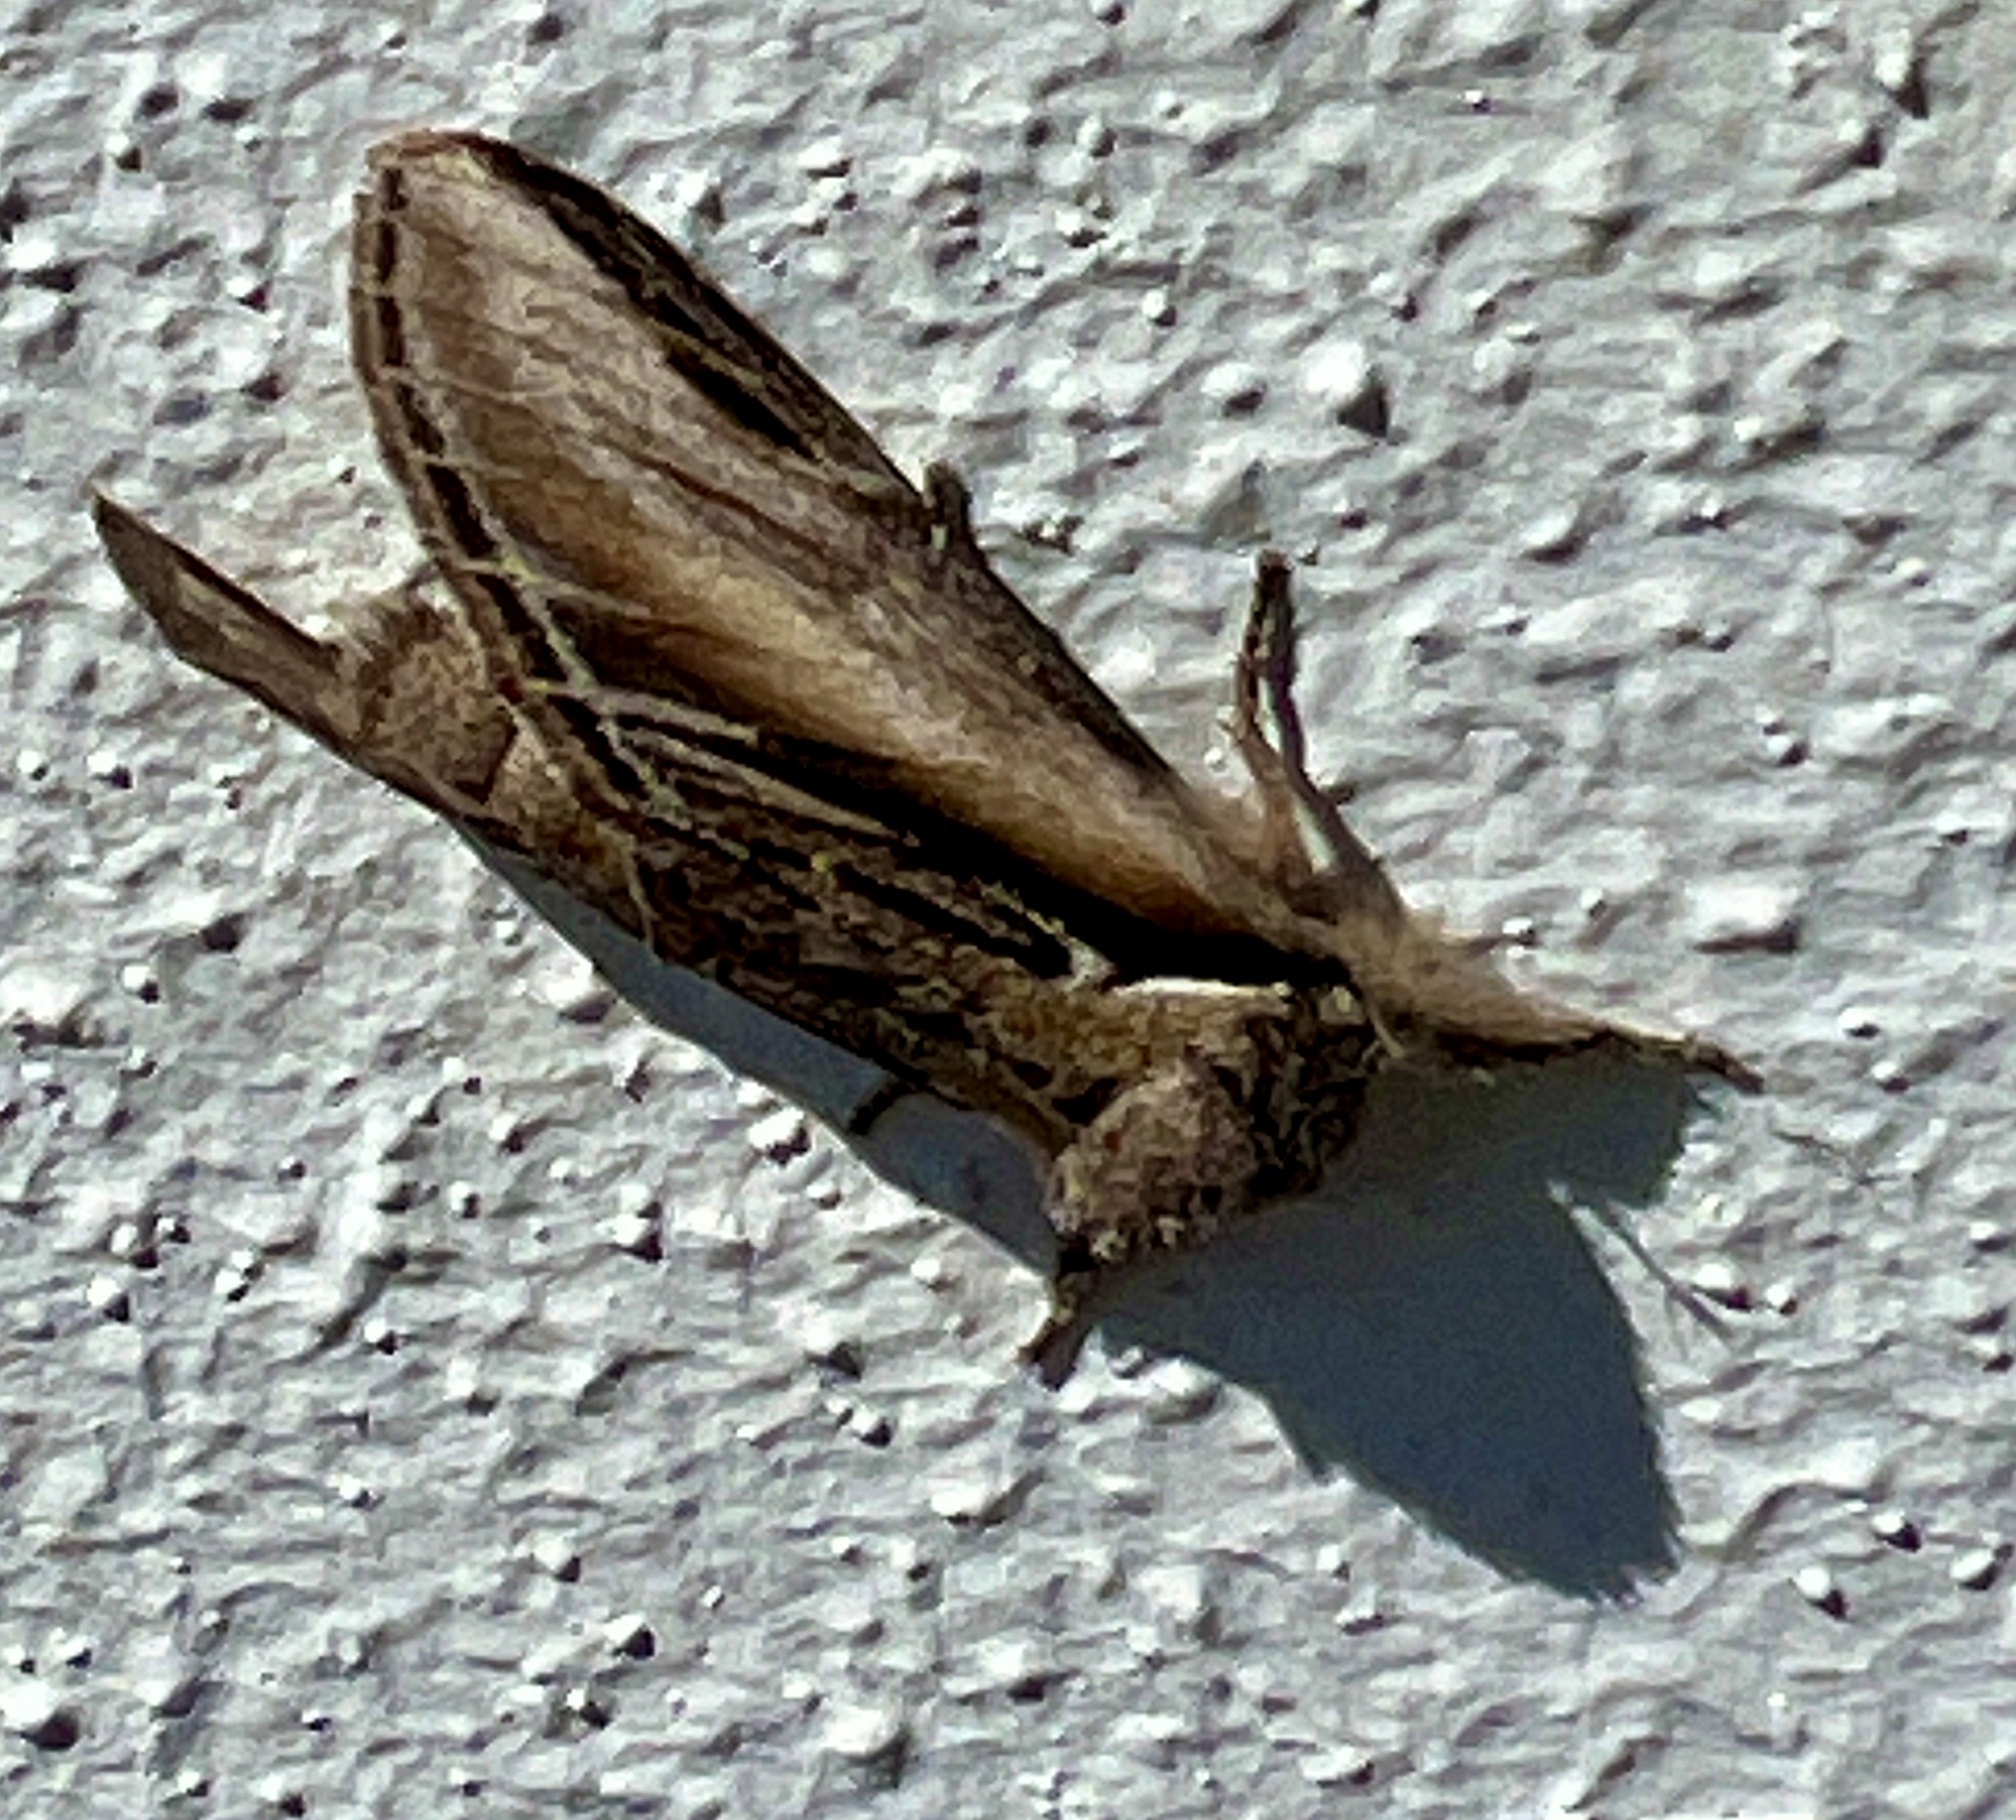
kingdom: Animalia
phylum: Arthropoda
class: Insecta
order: Lepidoptera
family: Notodontidae
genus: Pheosia
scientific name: Pheosia tremula
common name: Swallow prominent
